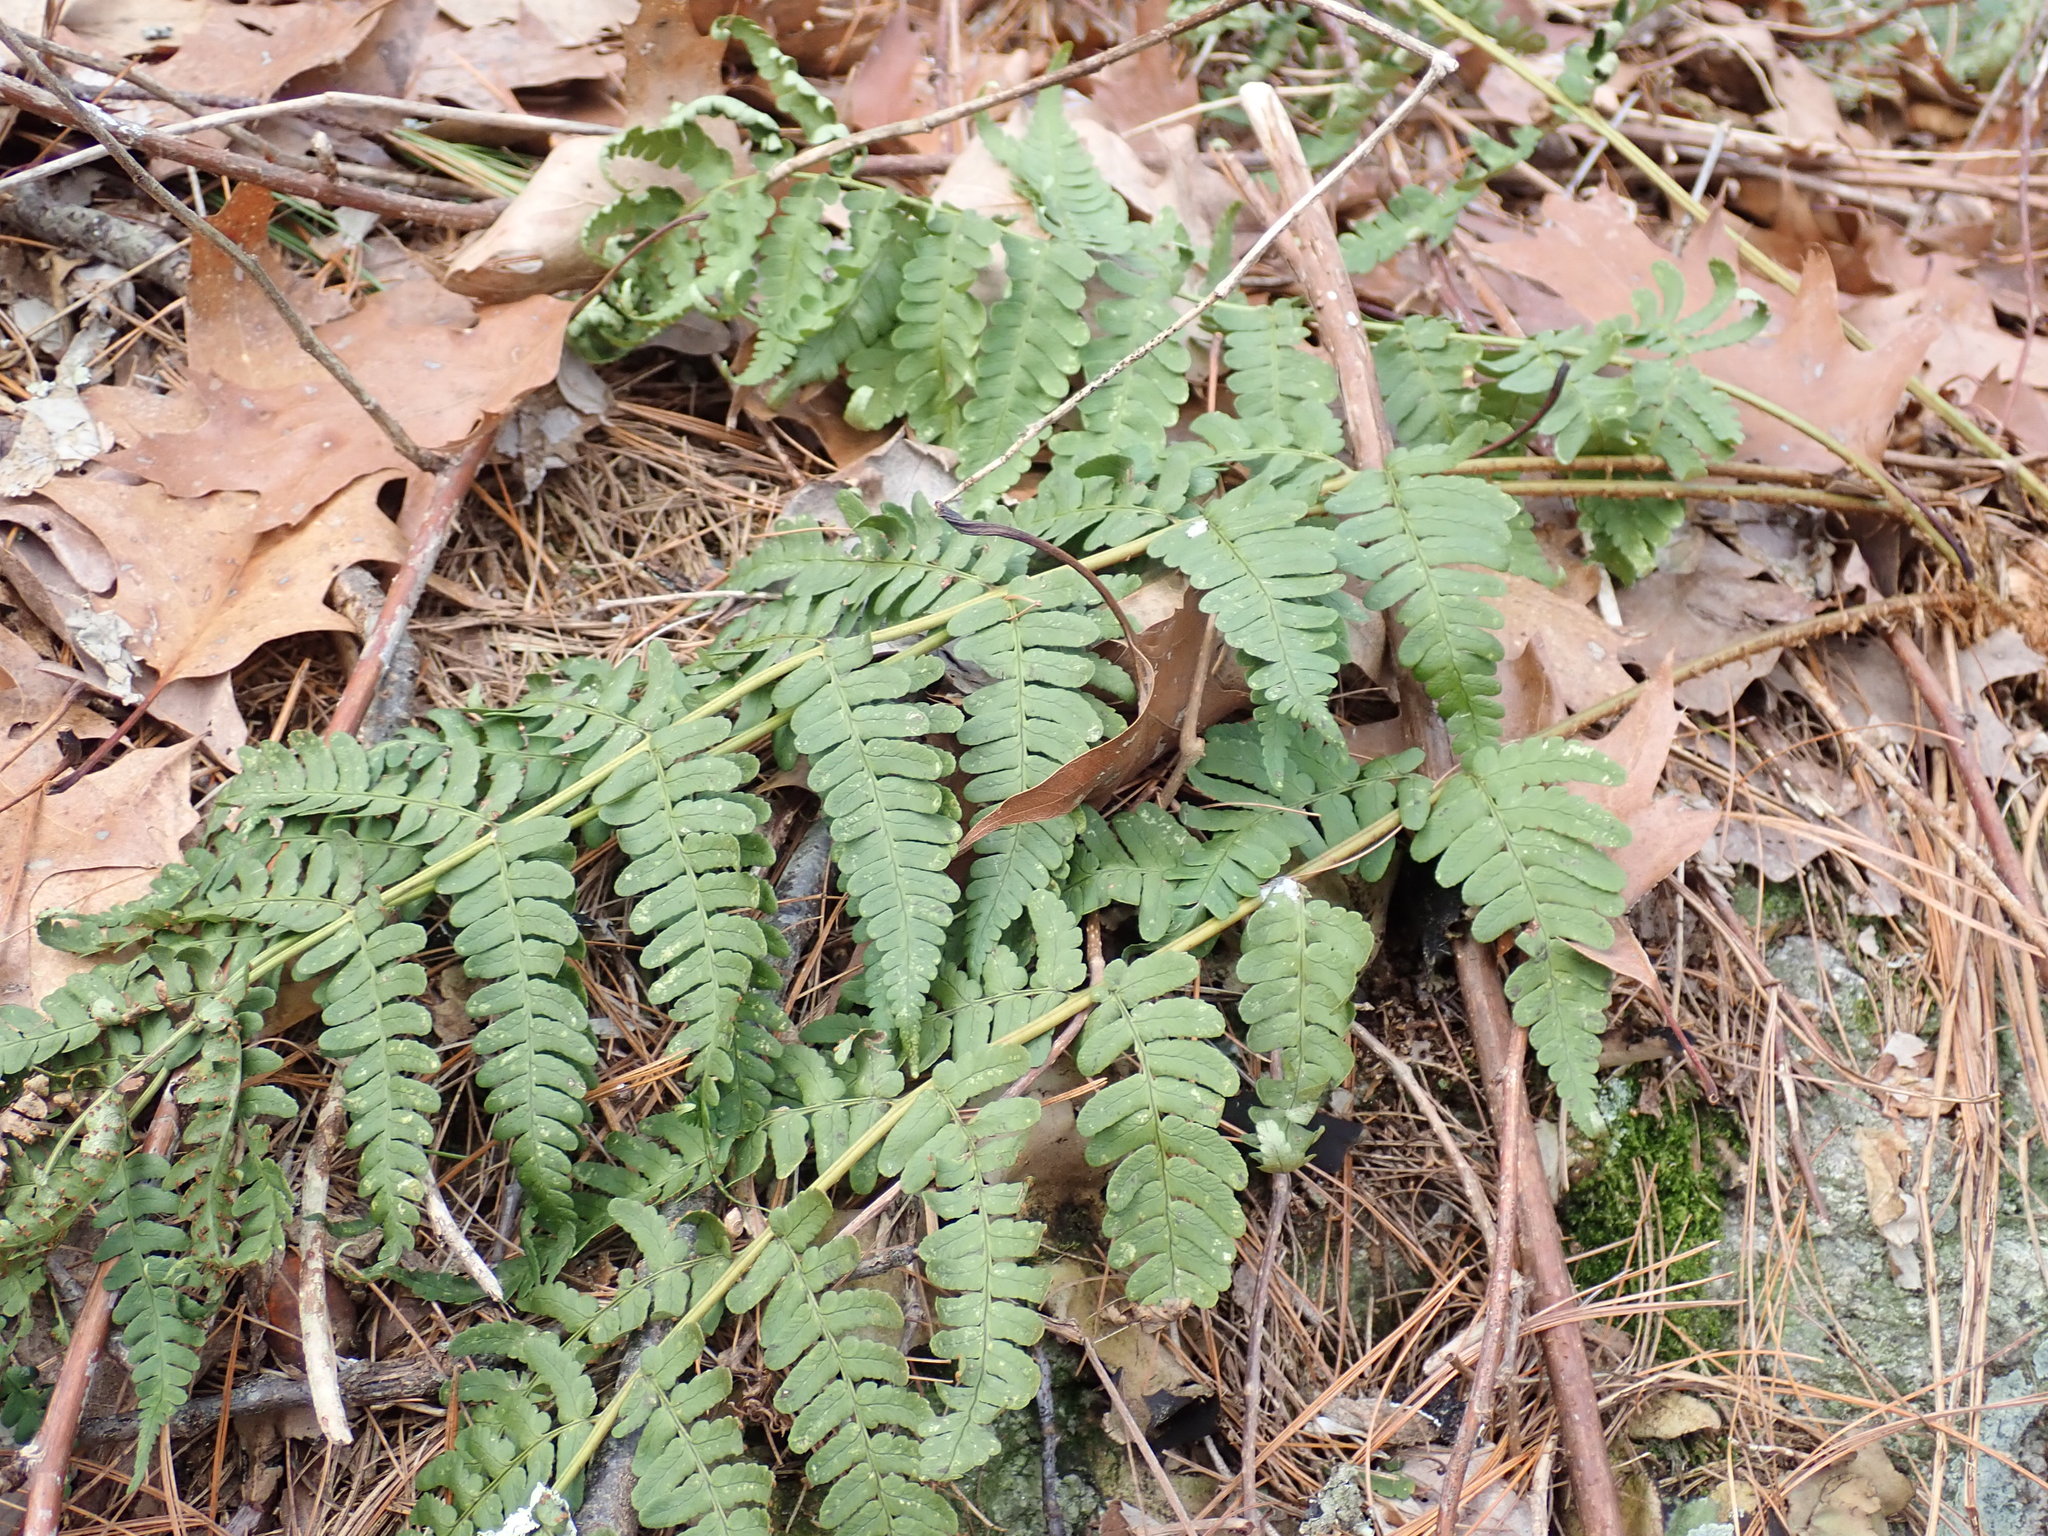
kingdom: Plantae
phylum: Tracheophyta
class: Polypodiopsida
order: Polypodiales
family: Dryopteridaceae
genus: Dryopteris
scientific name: Dryopteris marginalis
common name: Marginal wood fern
